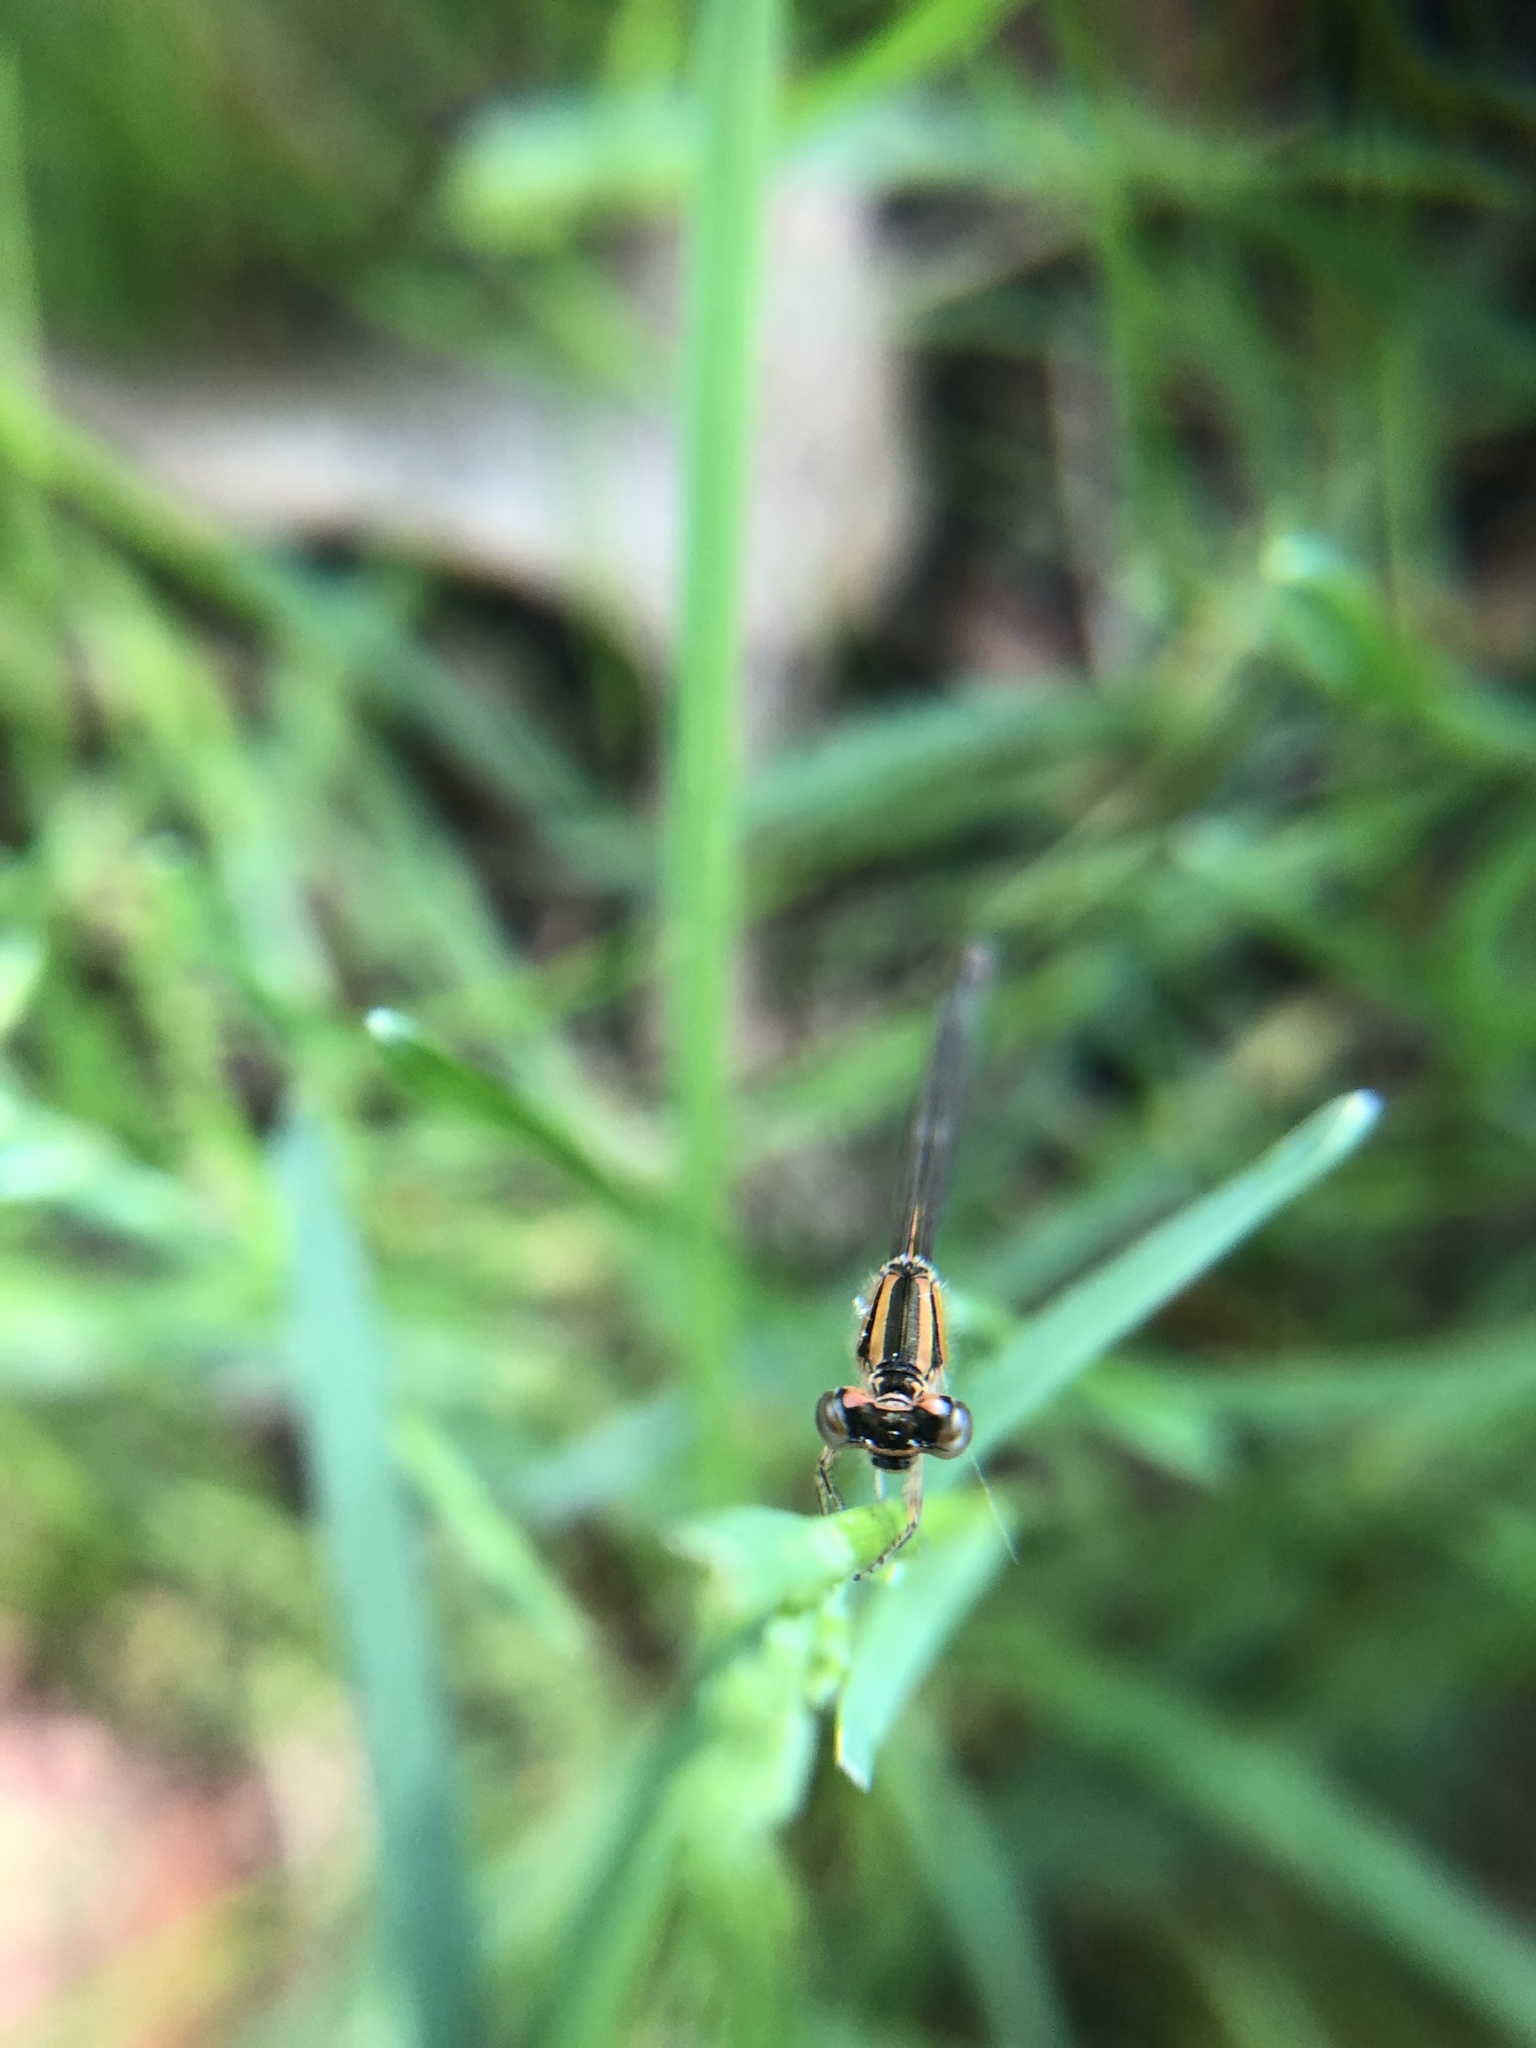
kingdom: Animalia
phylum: Arthropoda
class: Insecta
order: Odonata
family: Coenagrionidae
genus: Ischnura
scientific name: Ischnura verticalis
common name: Eastern forktail
